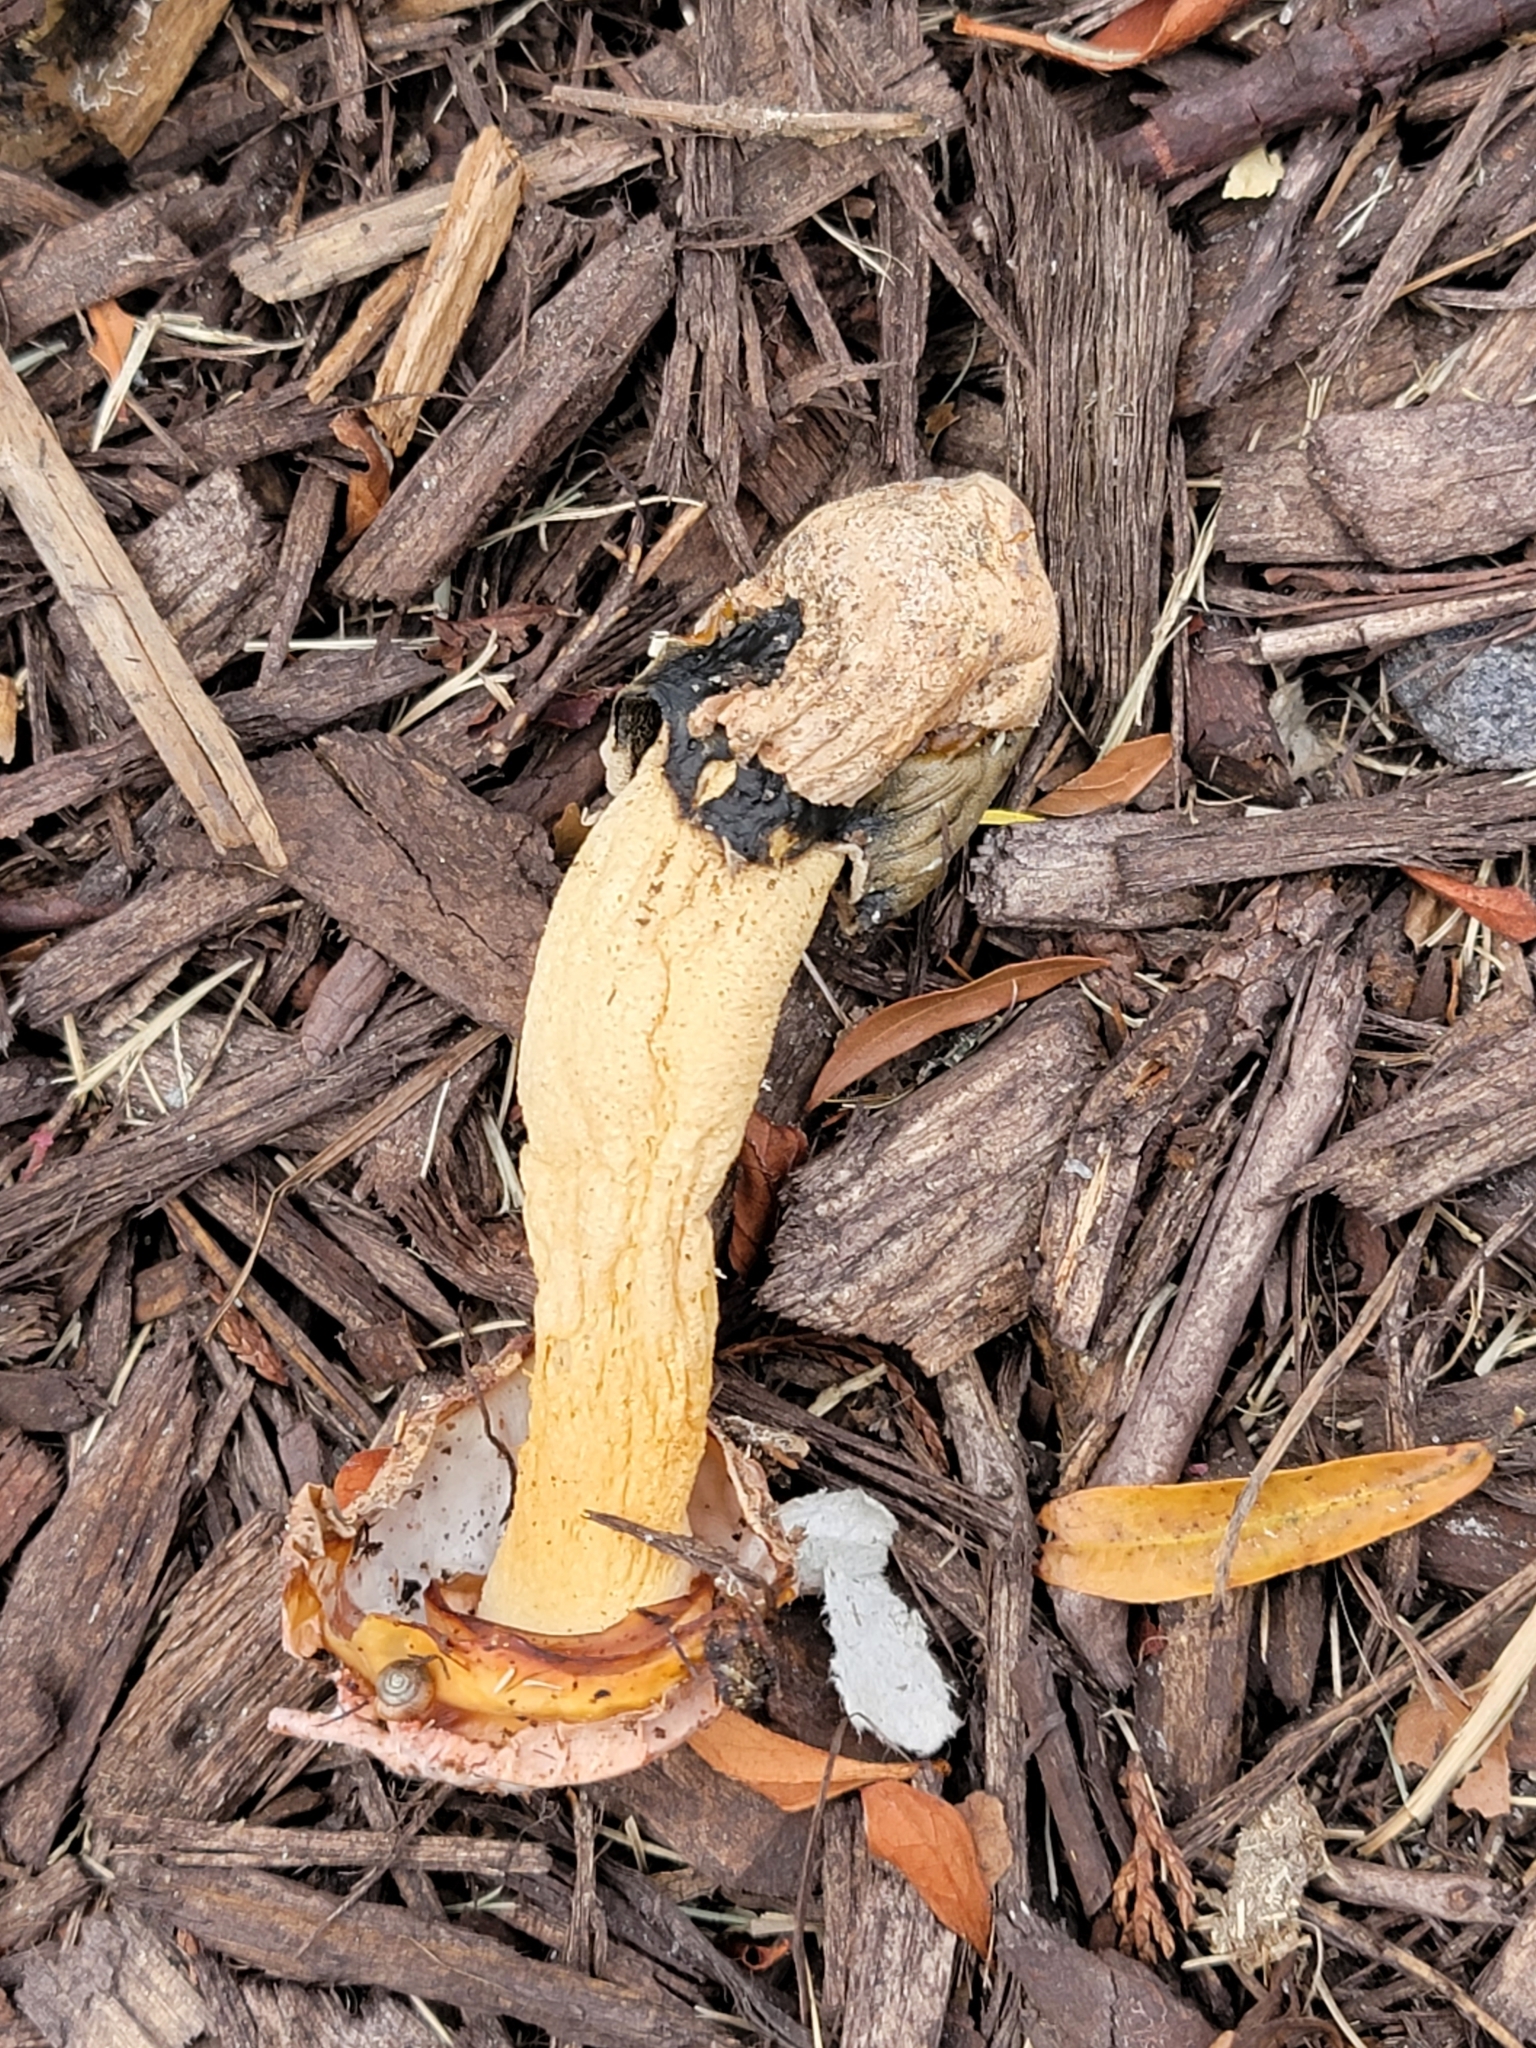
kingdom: Fungi
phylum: Basidiomycota
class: Agaricomycetes
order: Phallales
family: Phallaceae
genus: Phallus
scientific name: Phallus ravenelii
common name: Ravenel's stinkhorn
